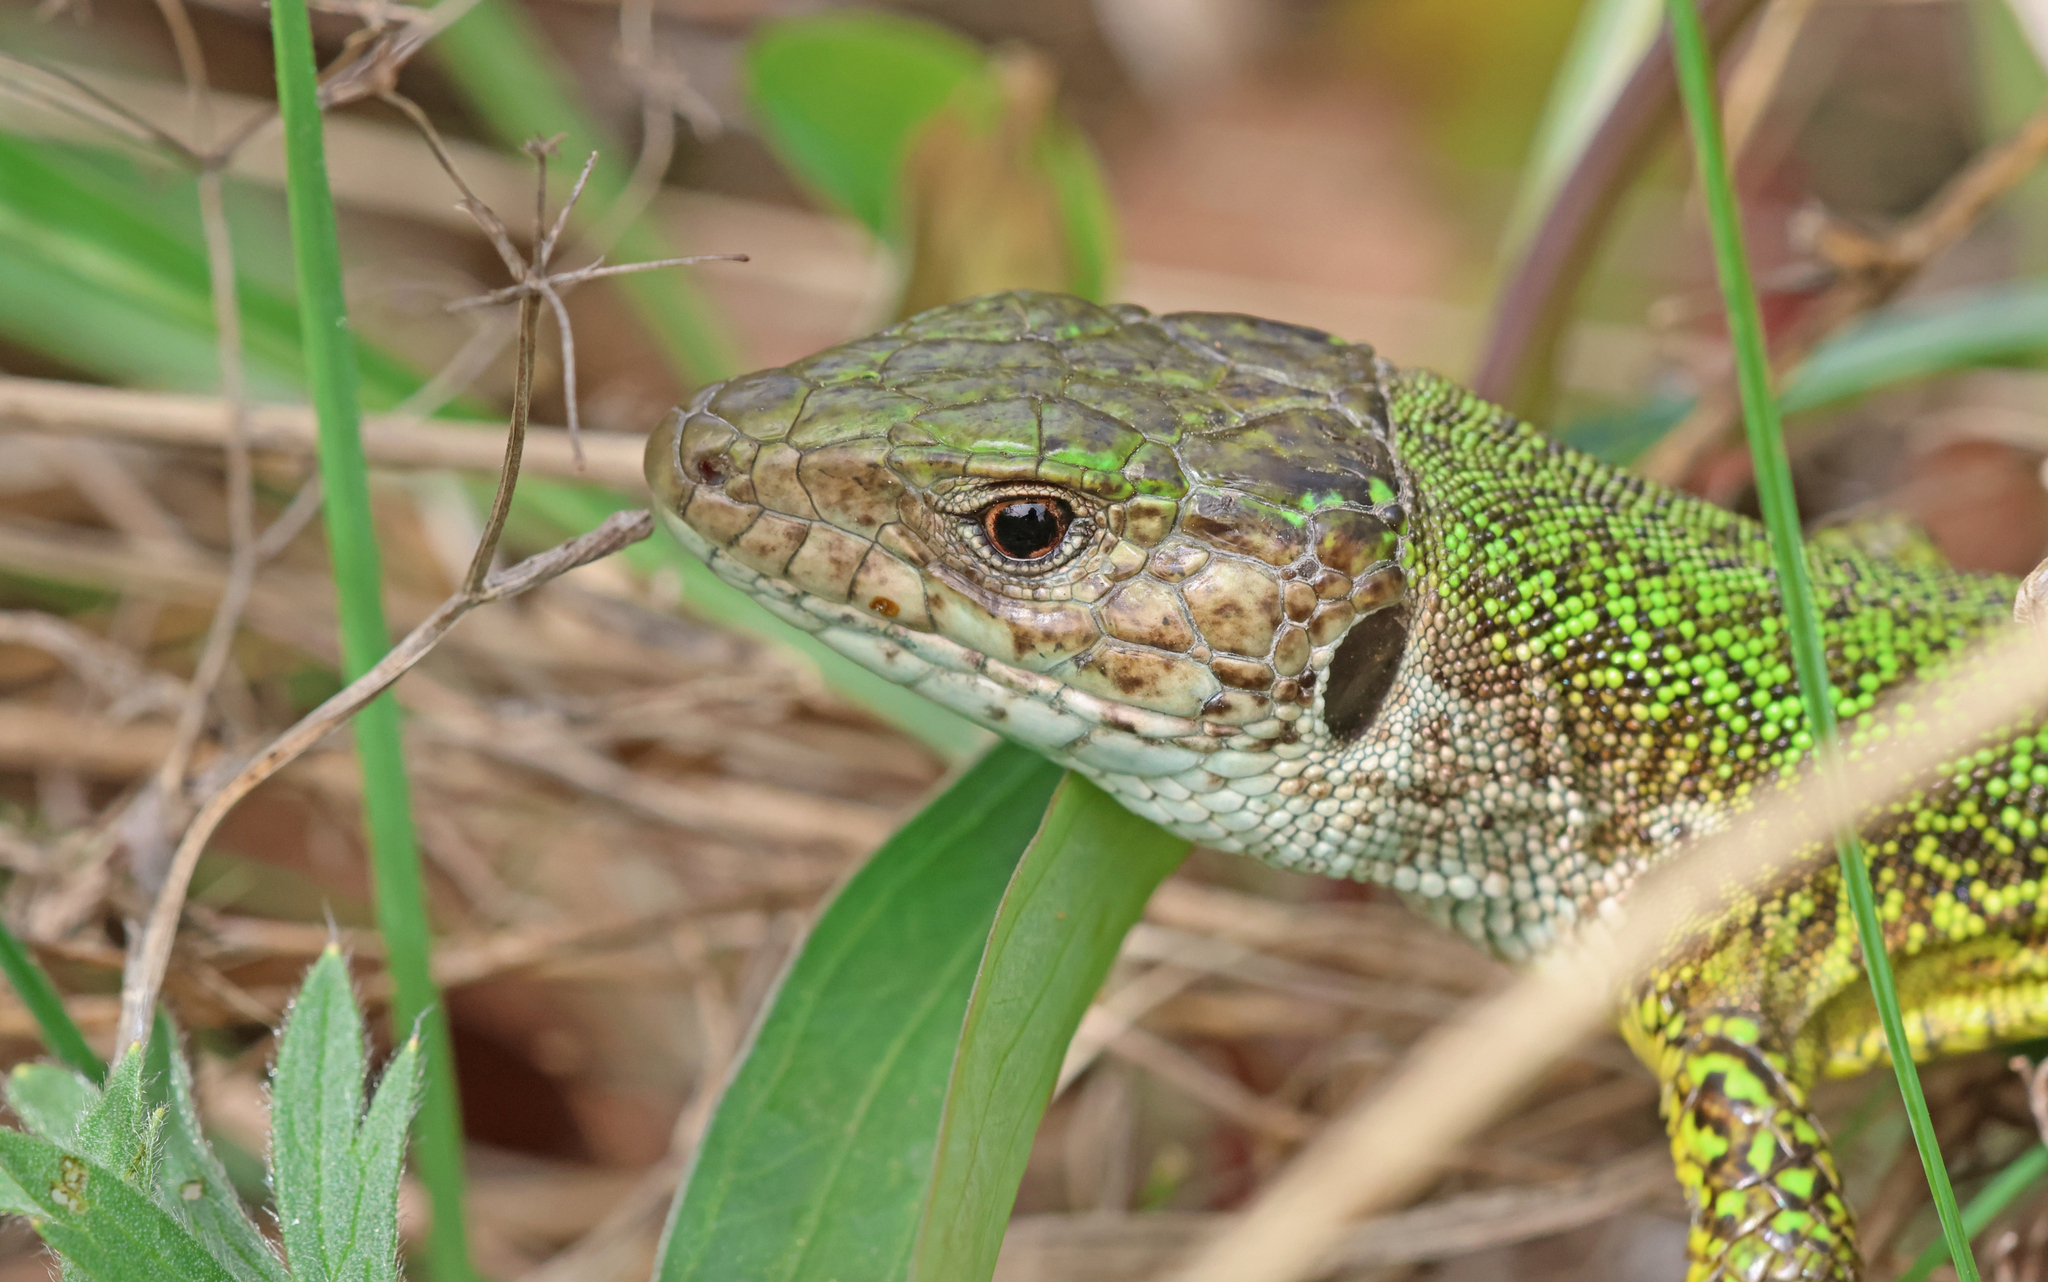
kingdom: Animalia
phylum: Chordata
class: Squamata
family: Lacertidae
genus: Lacerta
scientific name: Lacerta viridis
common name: European green lizard
